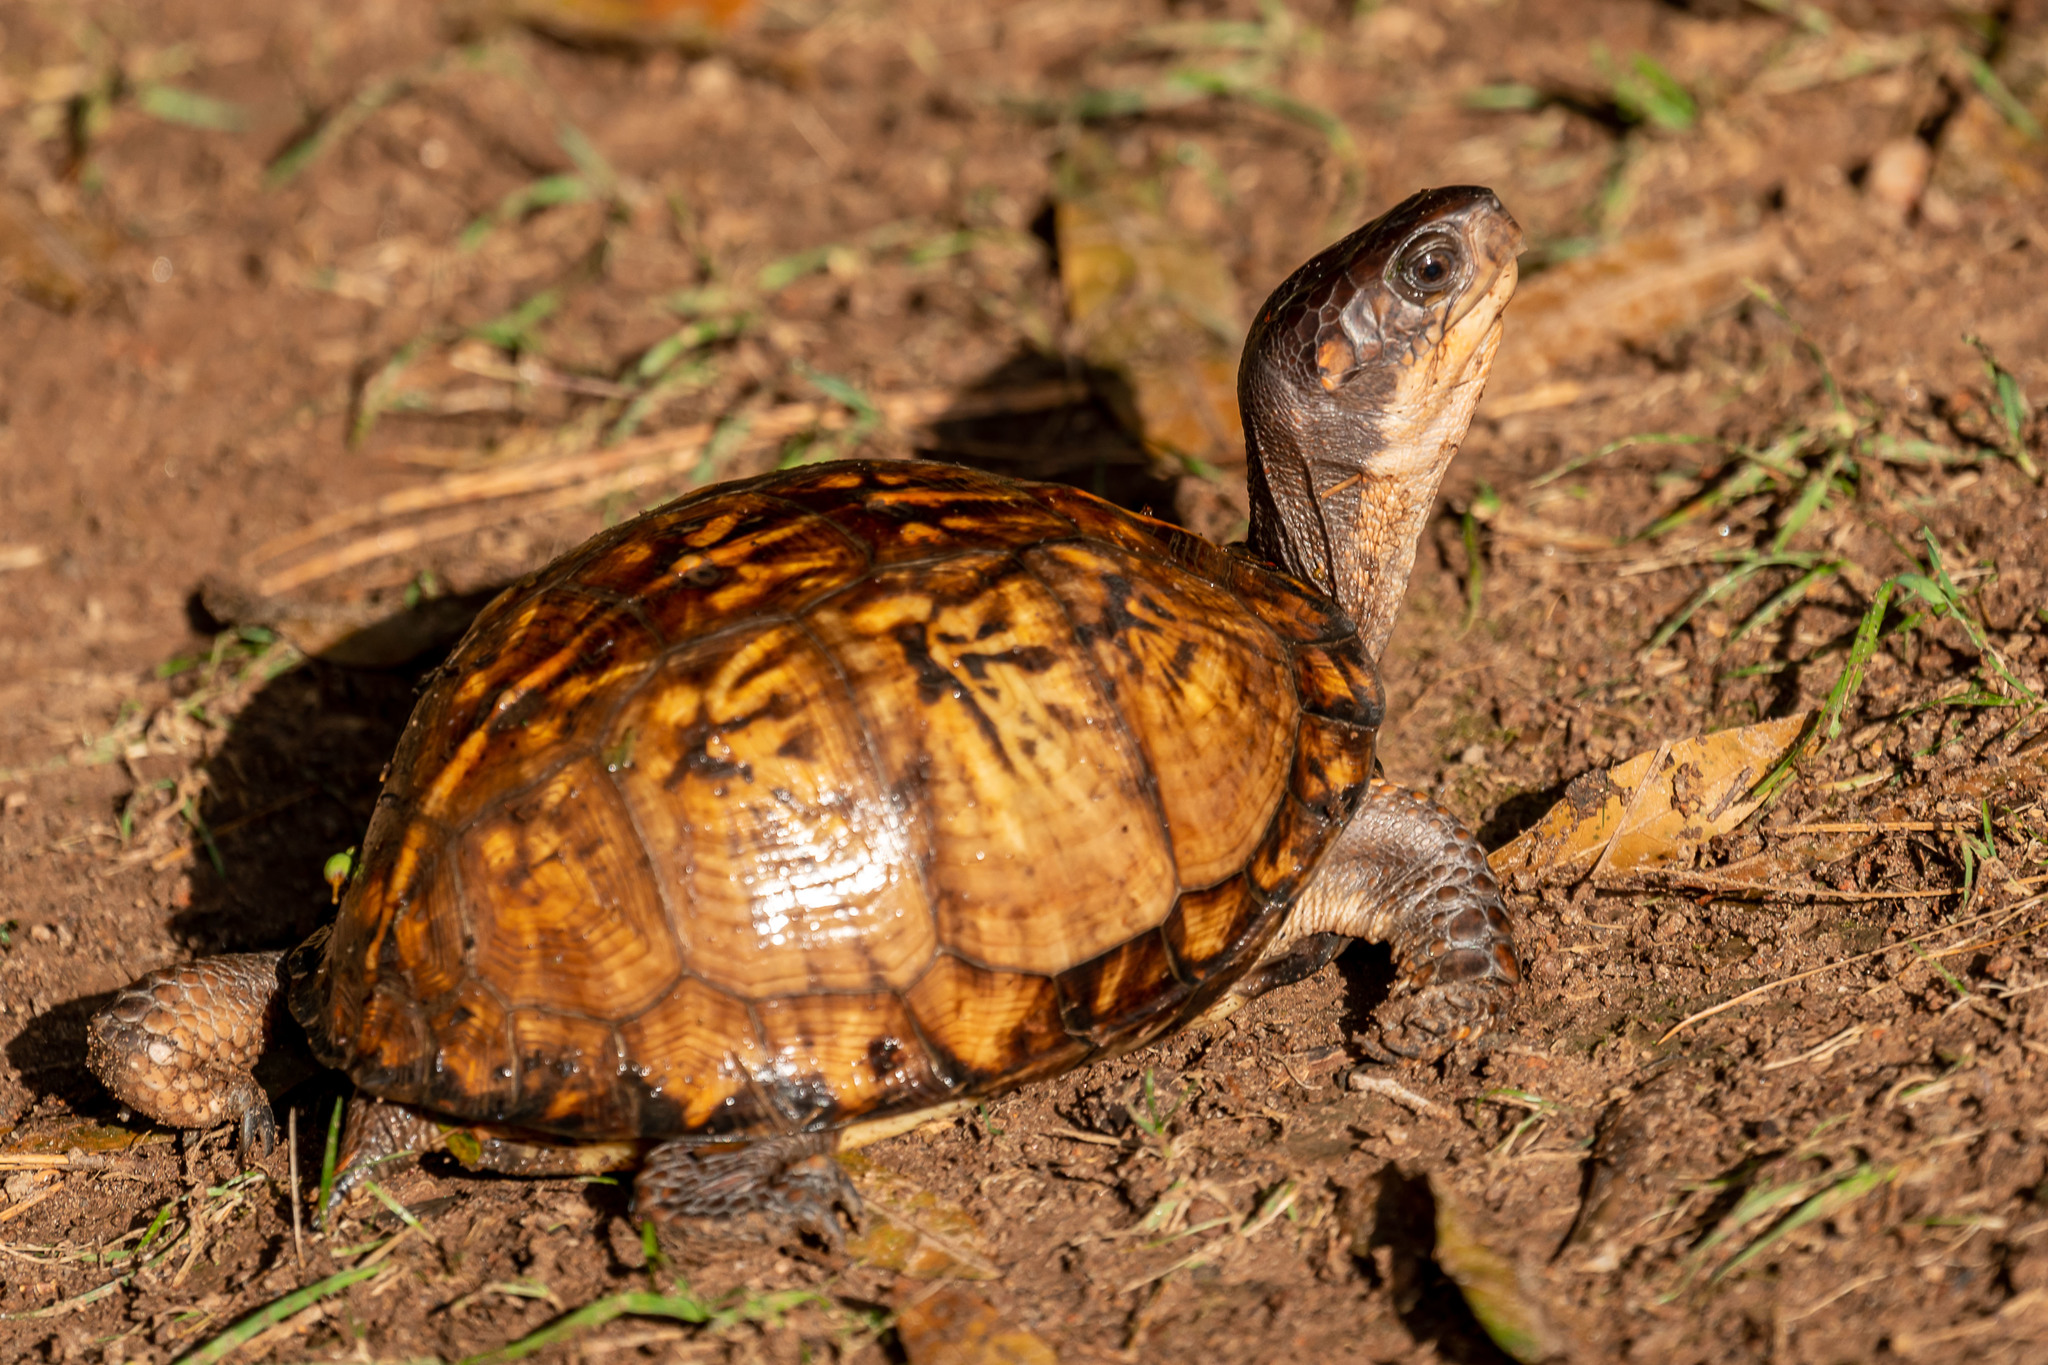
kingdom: Animalia
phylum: Chordata
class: Testudines
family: Emydidae
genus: Terrapene
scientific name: Terrapene carolina
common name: Common box turtle
